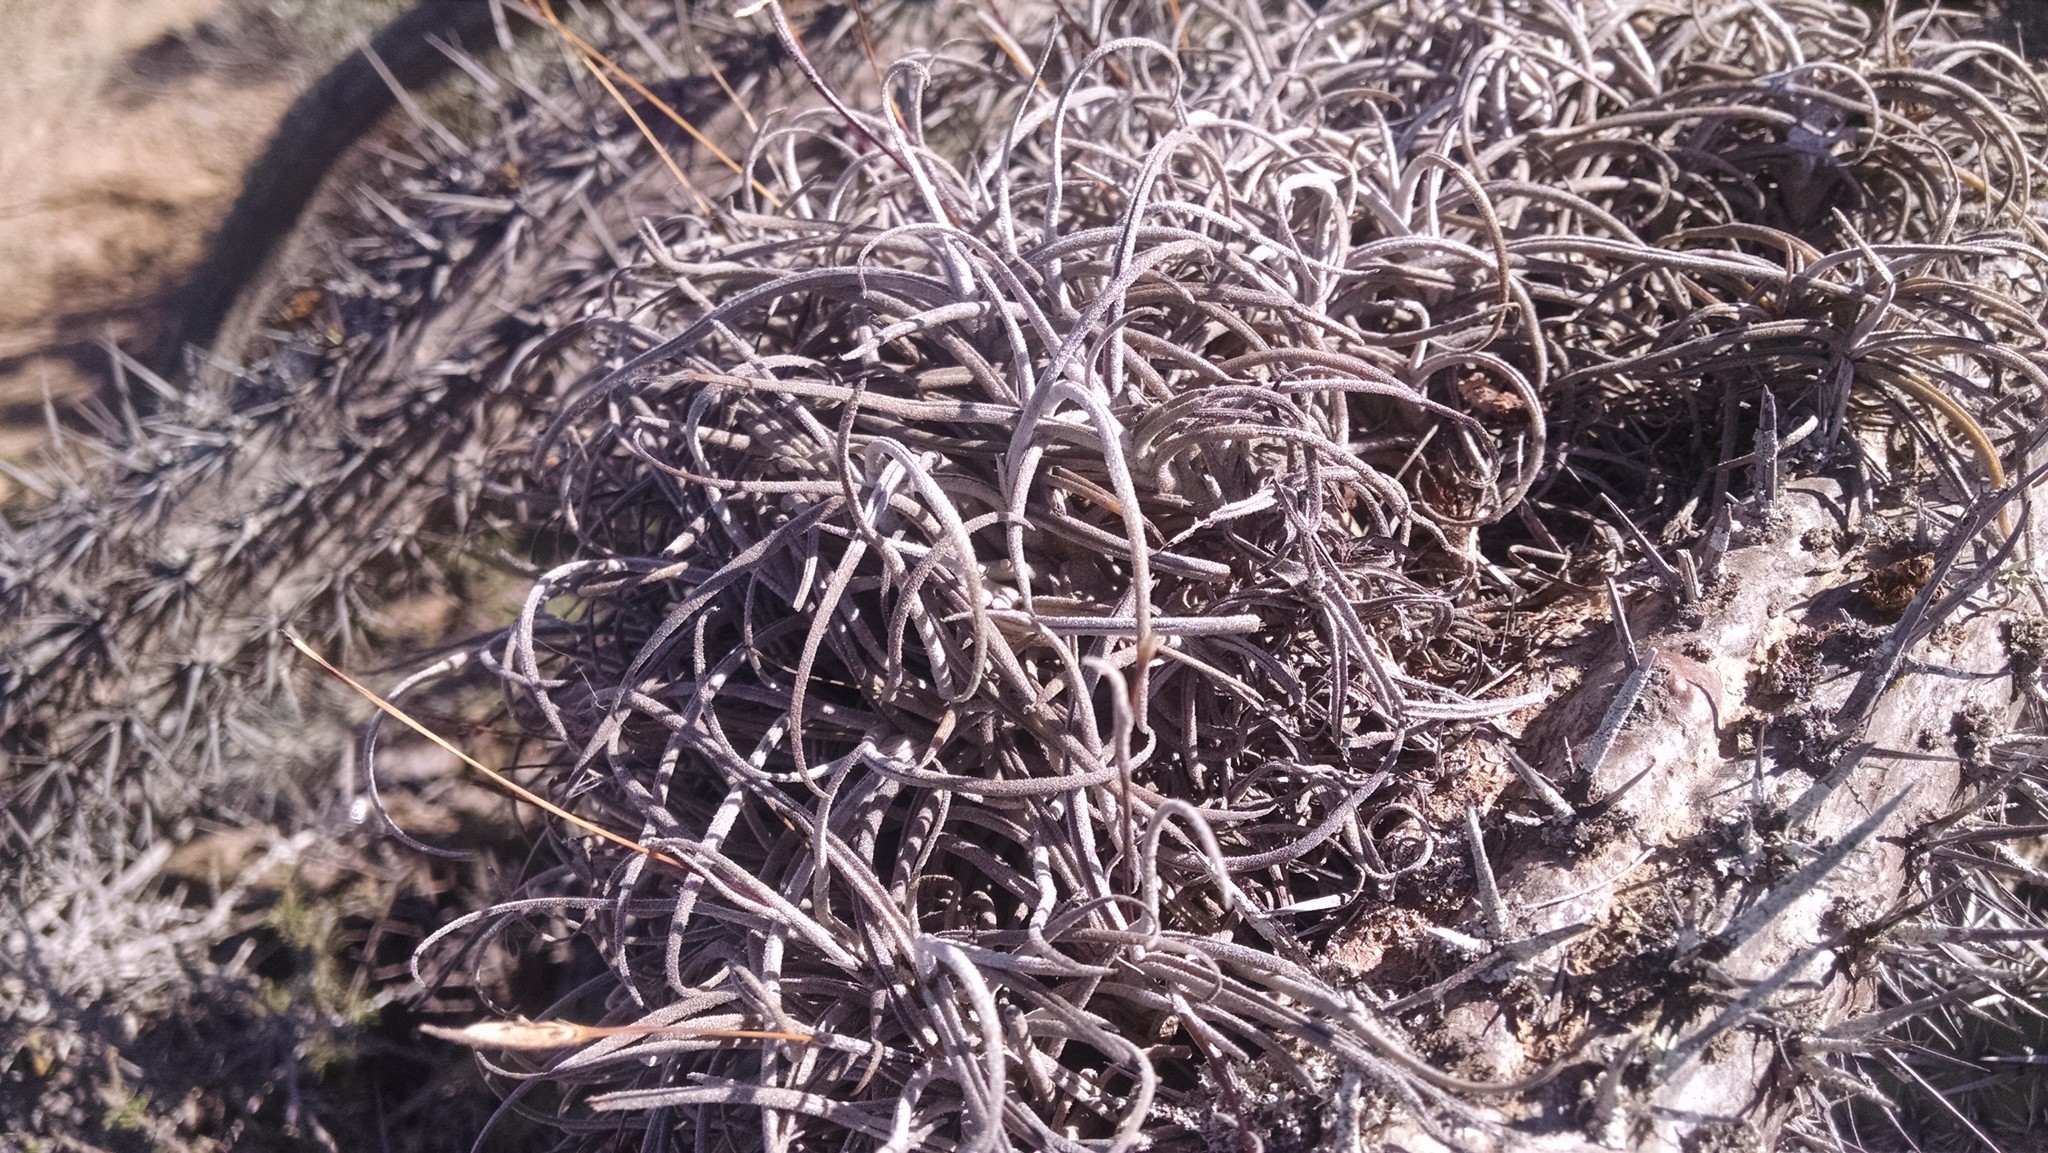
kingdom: Plantae
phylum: Tracheophyta
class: Liliopsida
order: Poales
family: Bromeliaceae
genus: Tillandsia
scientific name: Tillandsia recurvata
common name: Small ballmoss
